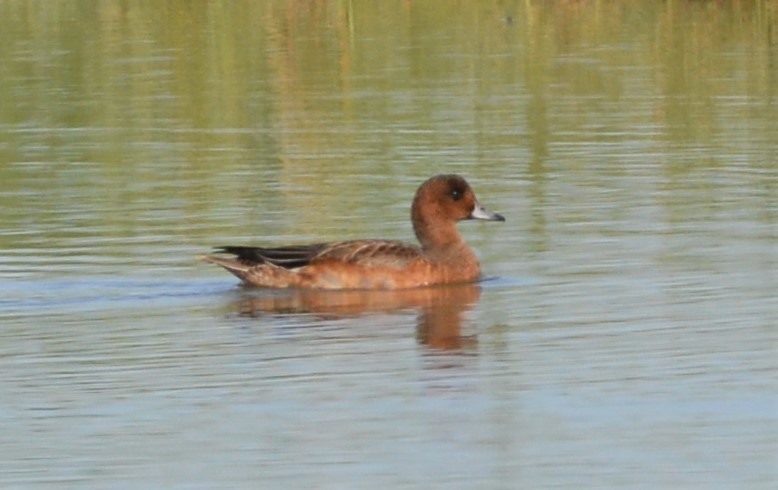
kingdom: Animalia
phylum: Chordata
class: Aves
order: Anseriformes
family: Anatidae
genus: Mareca
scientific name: Mareca penelope
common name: Eurasian wigeon
